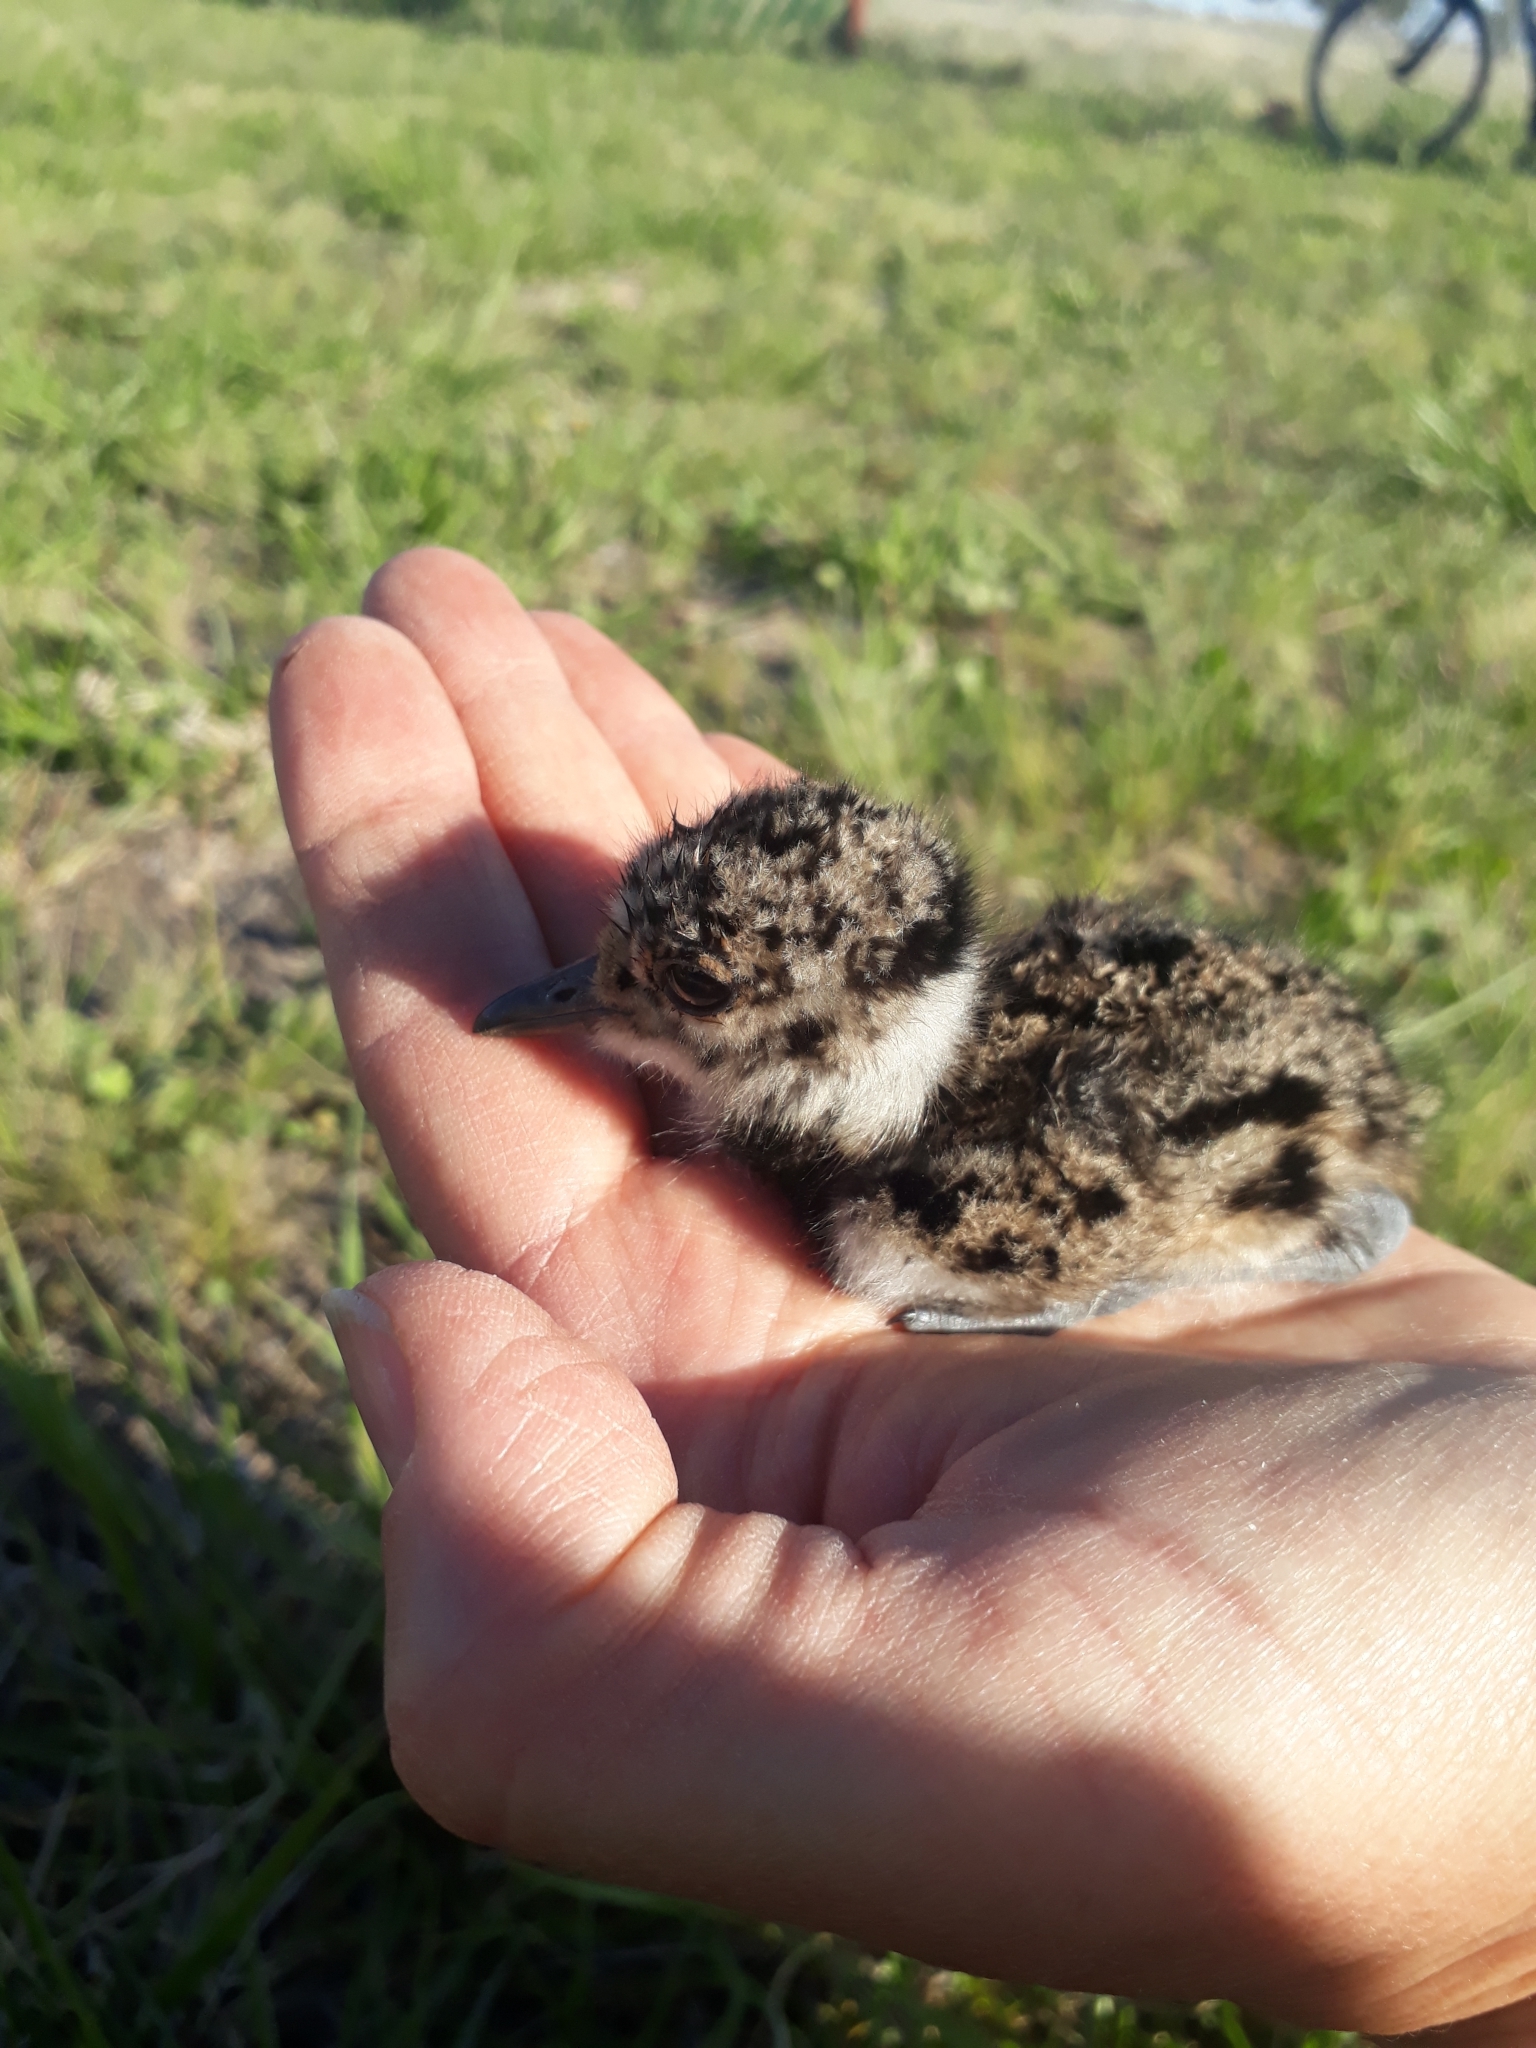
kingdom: Animalia
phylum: Chordata
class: Aves
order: Charadriiformes
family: Charadriidae
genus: Vanellus
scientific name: Vanellus chilensis
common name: Southern lapwing
